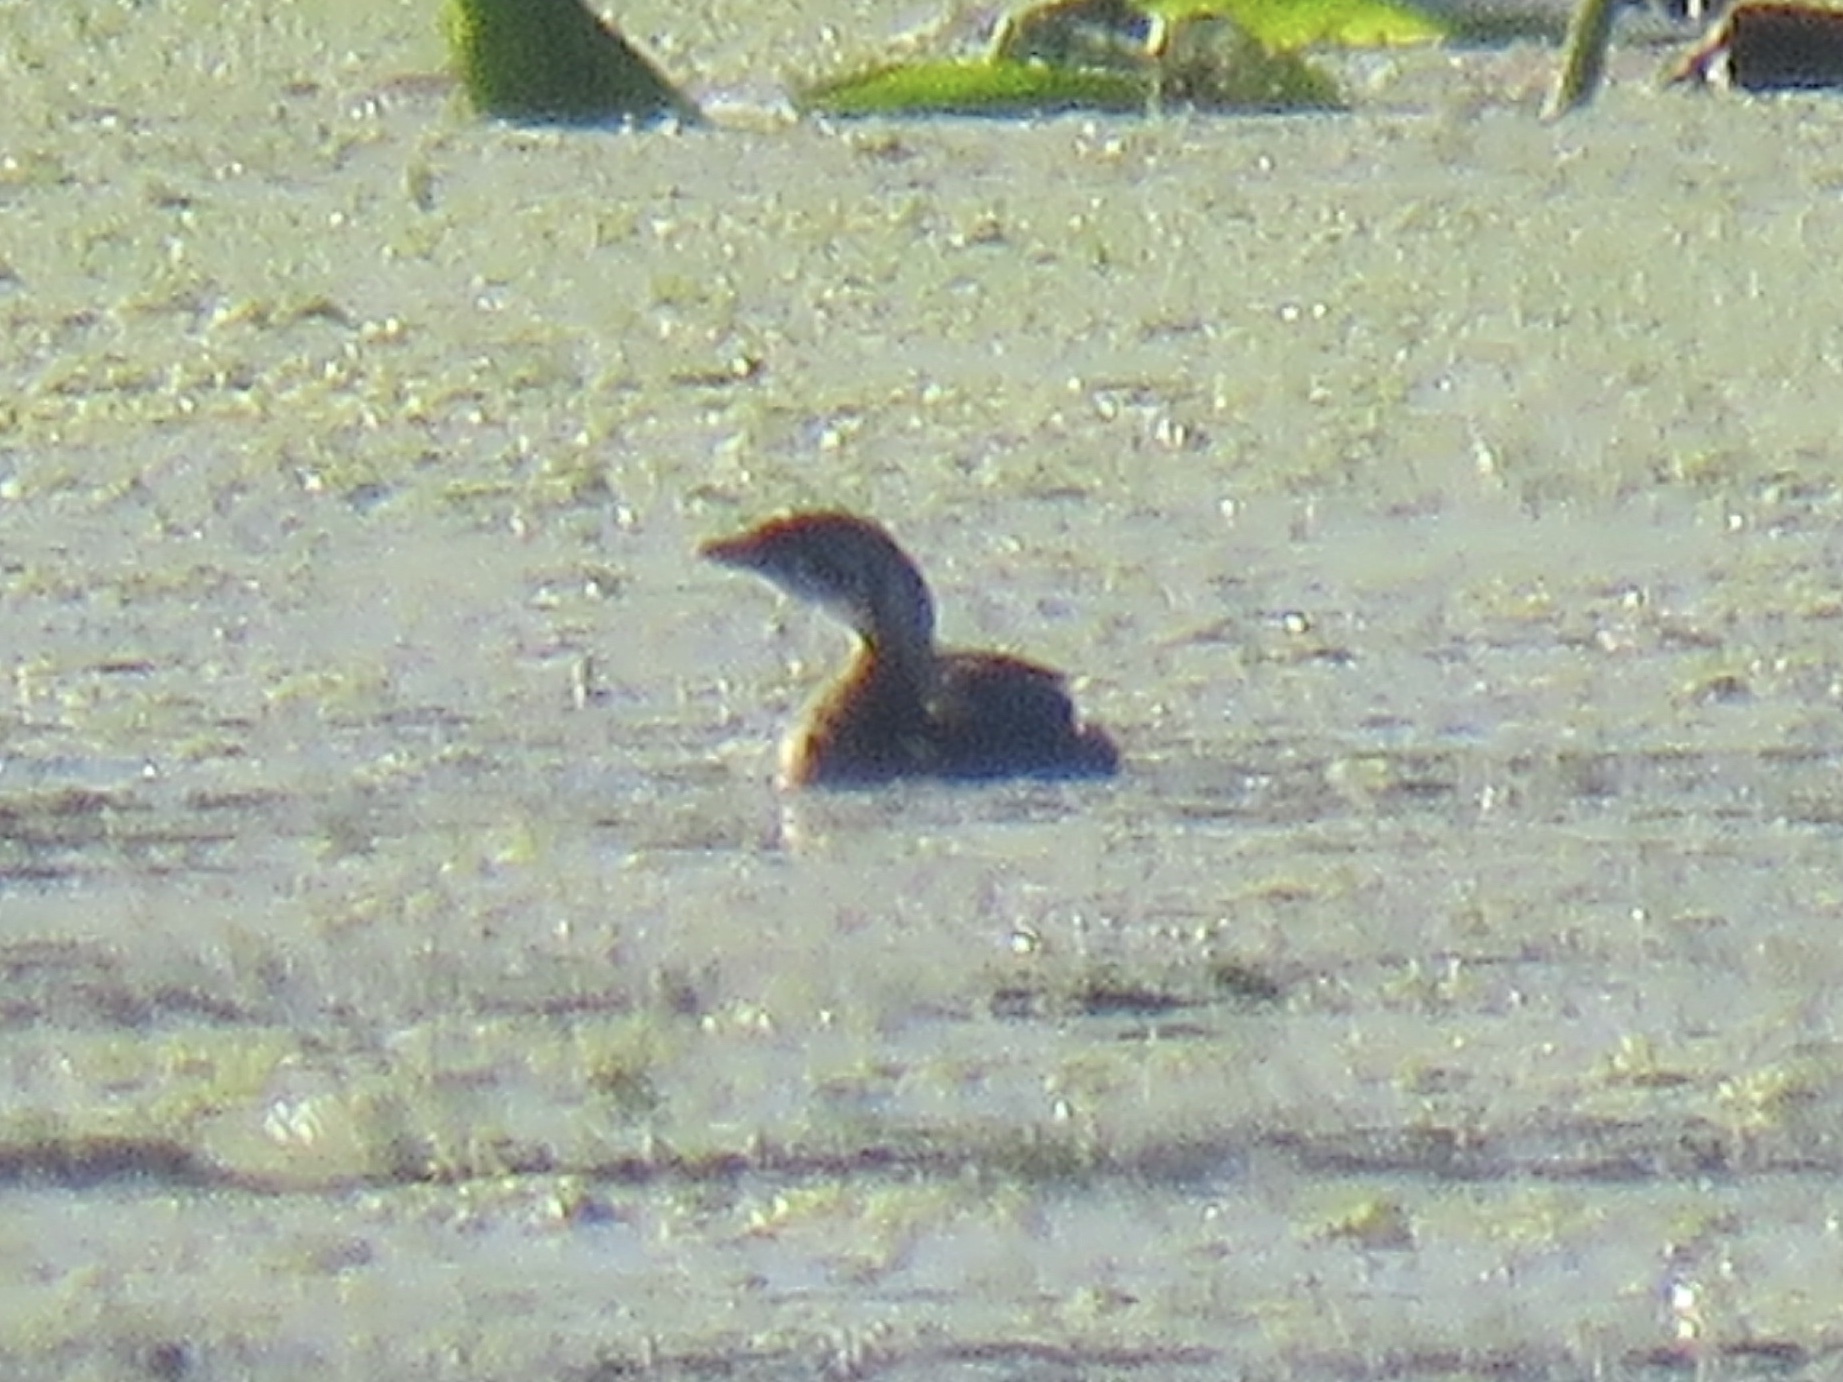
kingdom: Animalia
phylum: Chordata
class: Aves
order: Podicipediformes
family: Podicipedidae
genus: Podilymbus
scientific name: Podilymbus podiceps
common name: Pied-billed grebe
